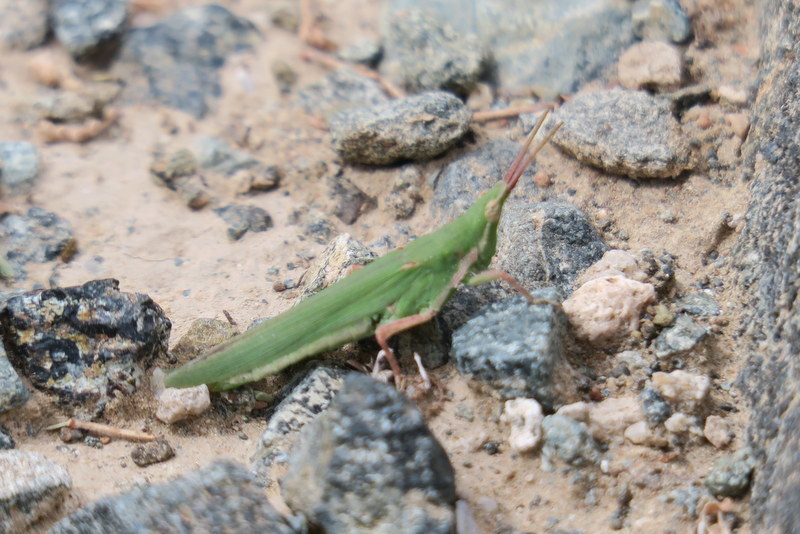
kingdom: Animalia
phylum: Arthropoda
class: Insecta
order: Orthoptera
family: Pyrgomorphidae
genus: Pyrgomorpha
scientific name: Pyrgomorpha conica
